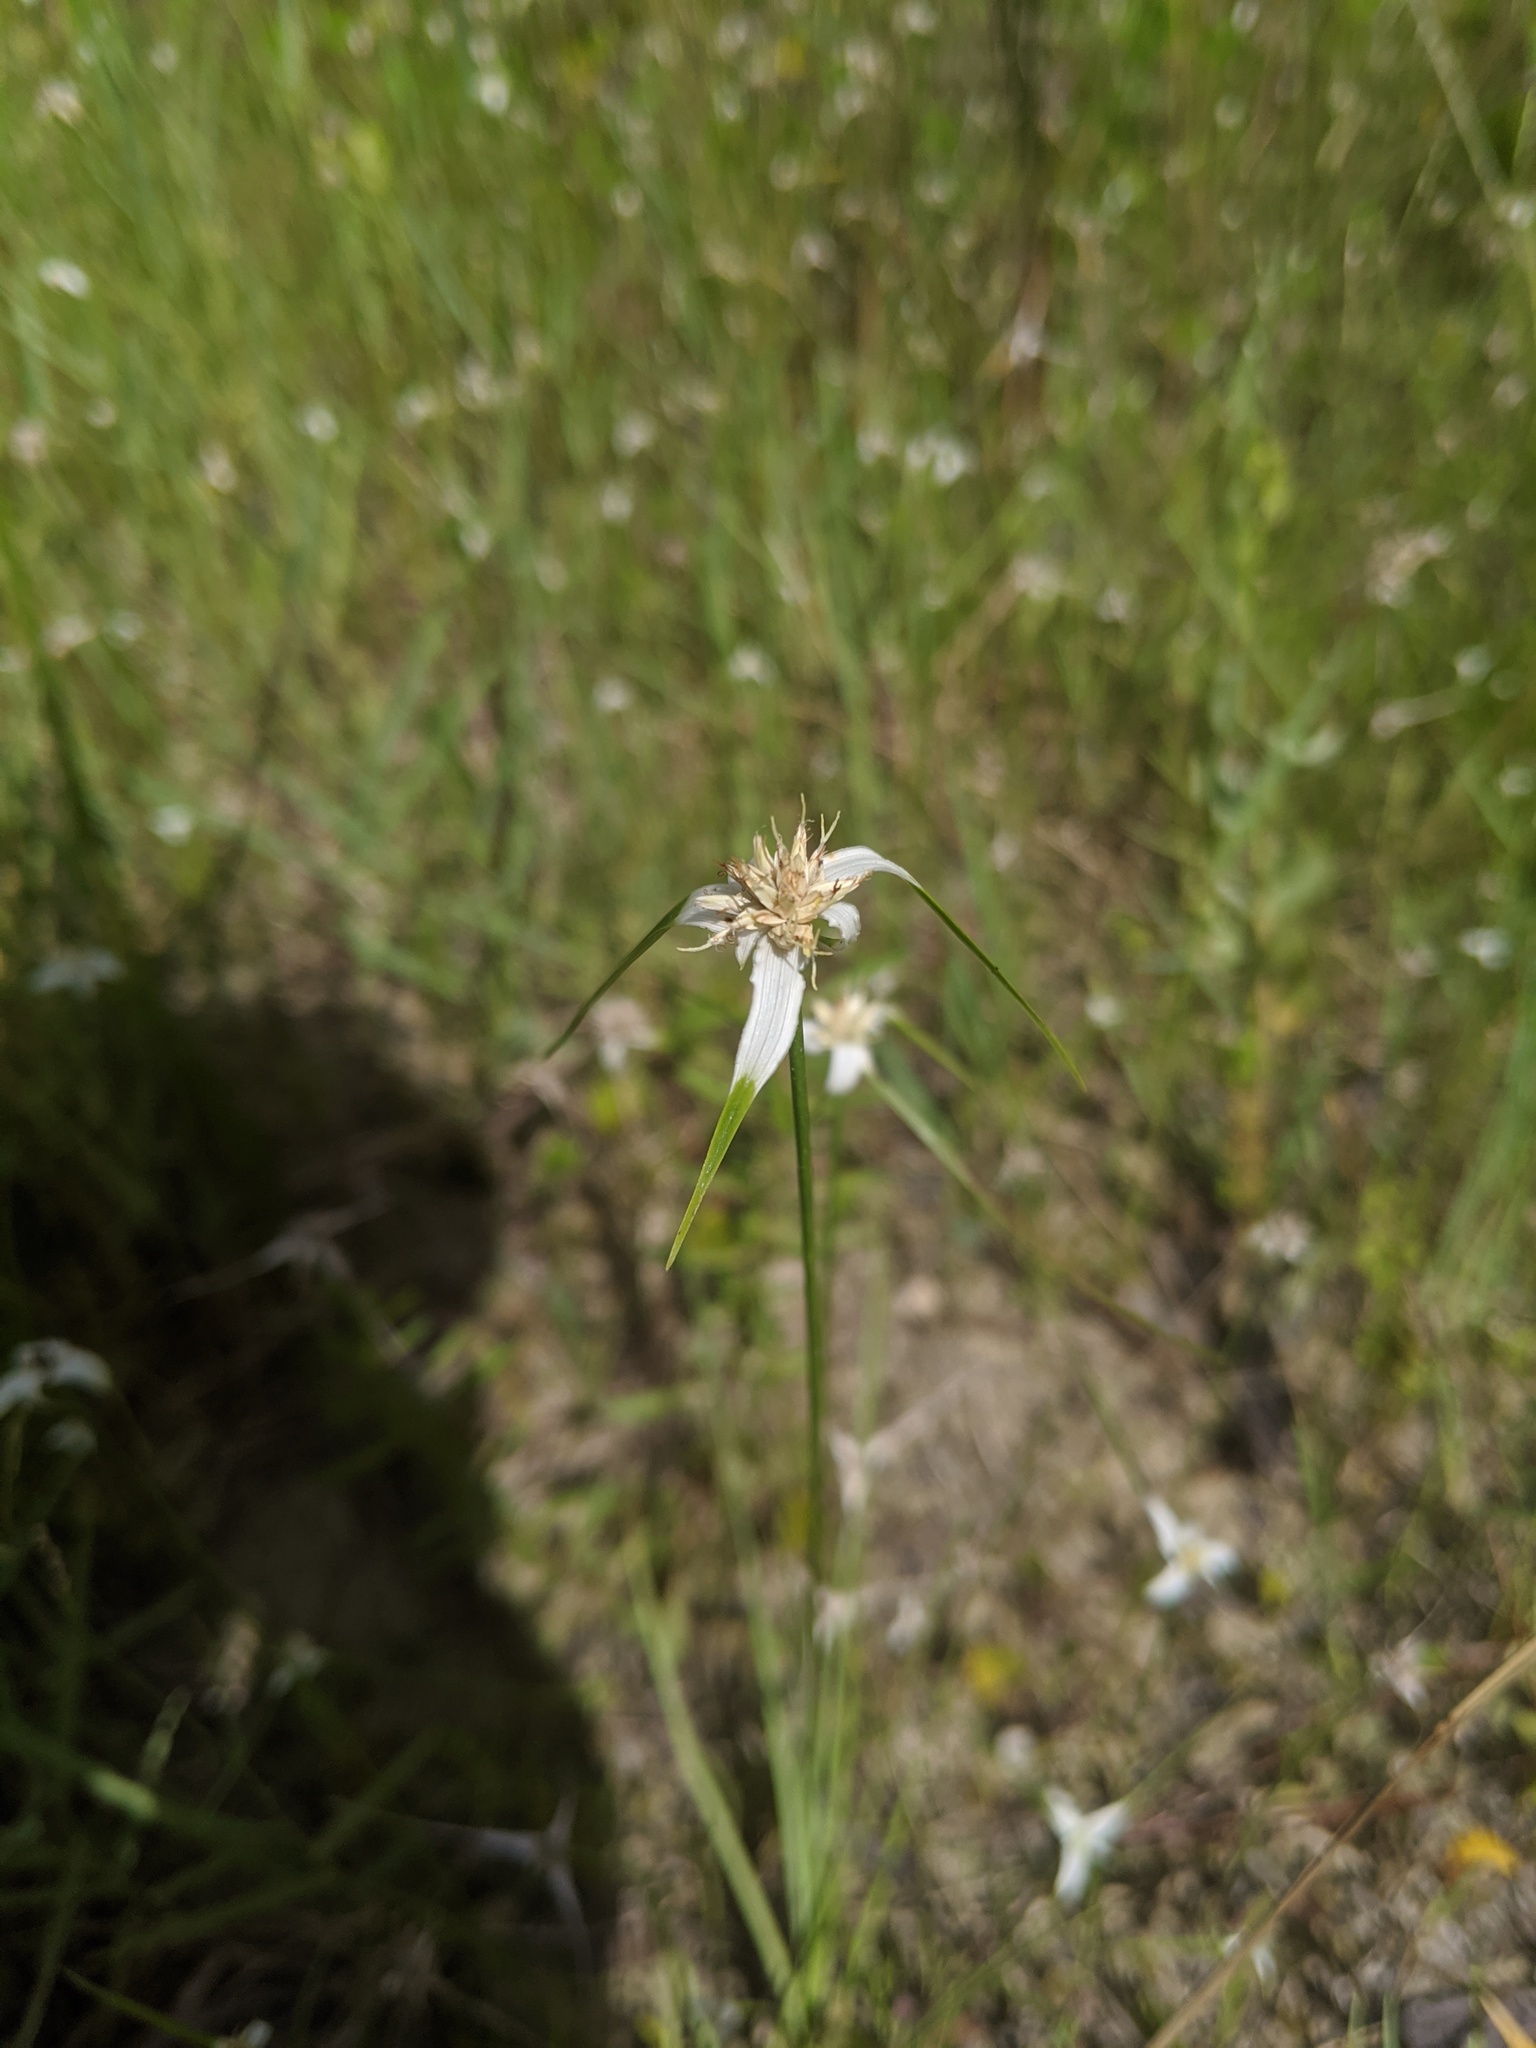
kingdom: Plantae
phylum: Tracheophyta
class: Liliopsida
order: Poales
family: Cyperaceae
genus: Rhynchospora
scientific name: Rhynchospora colorata
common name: Star sedge
